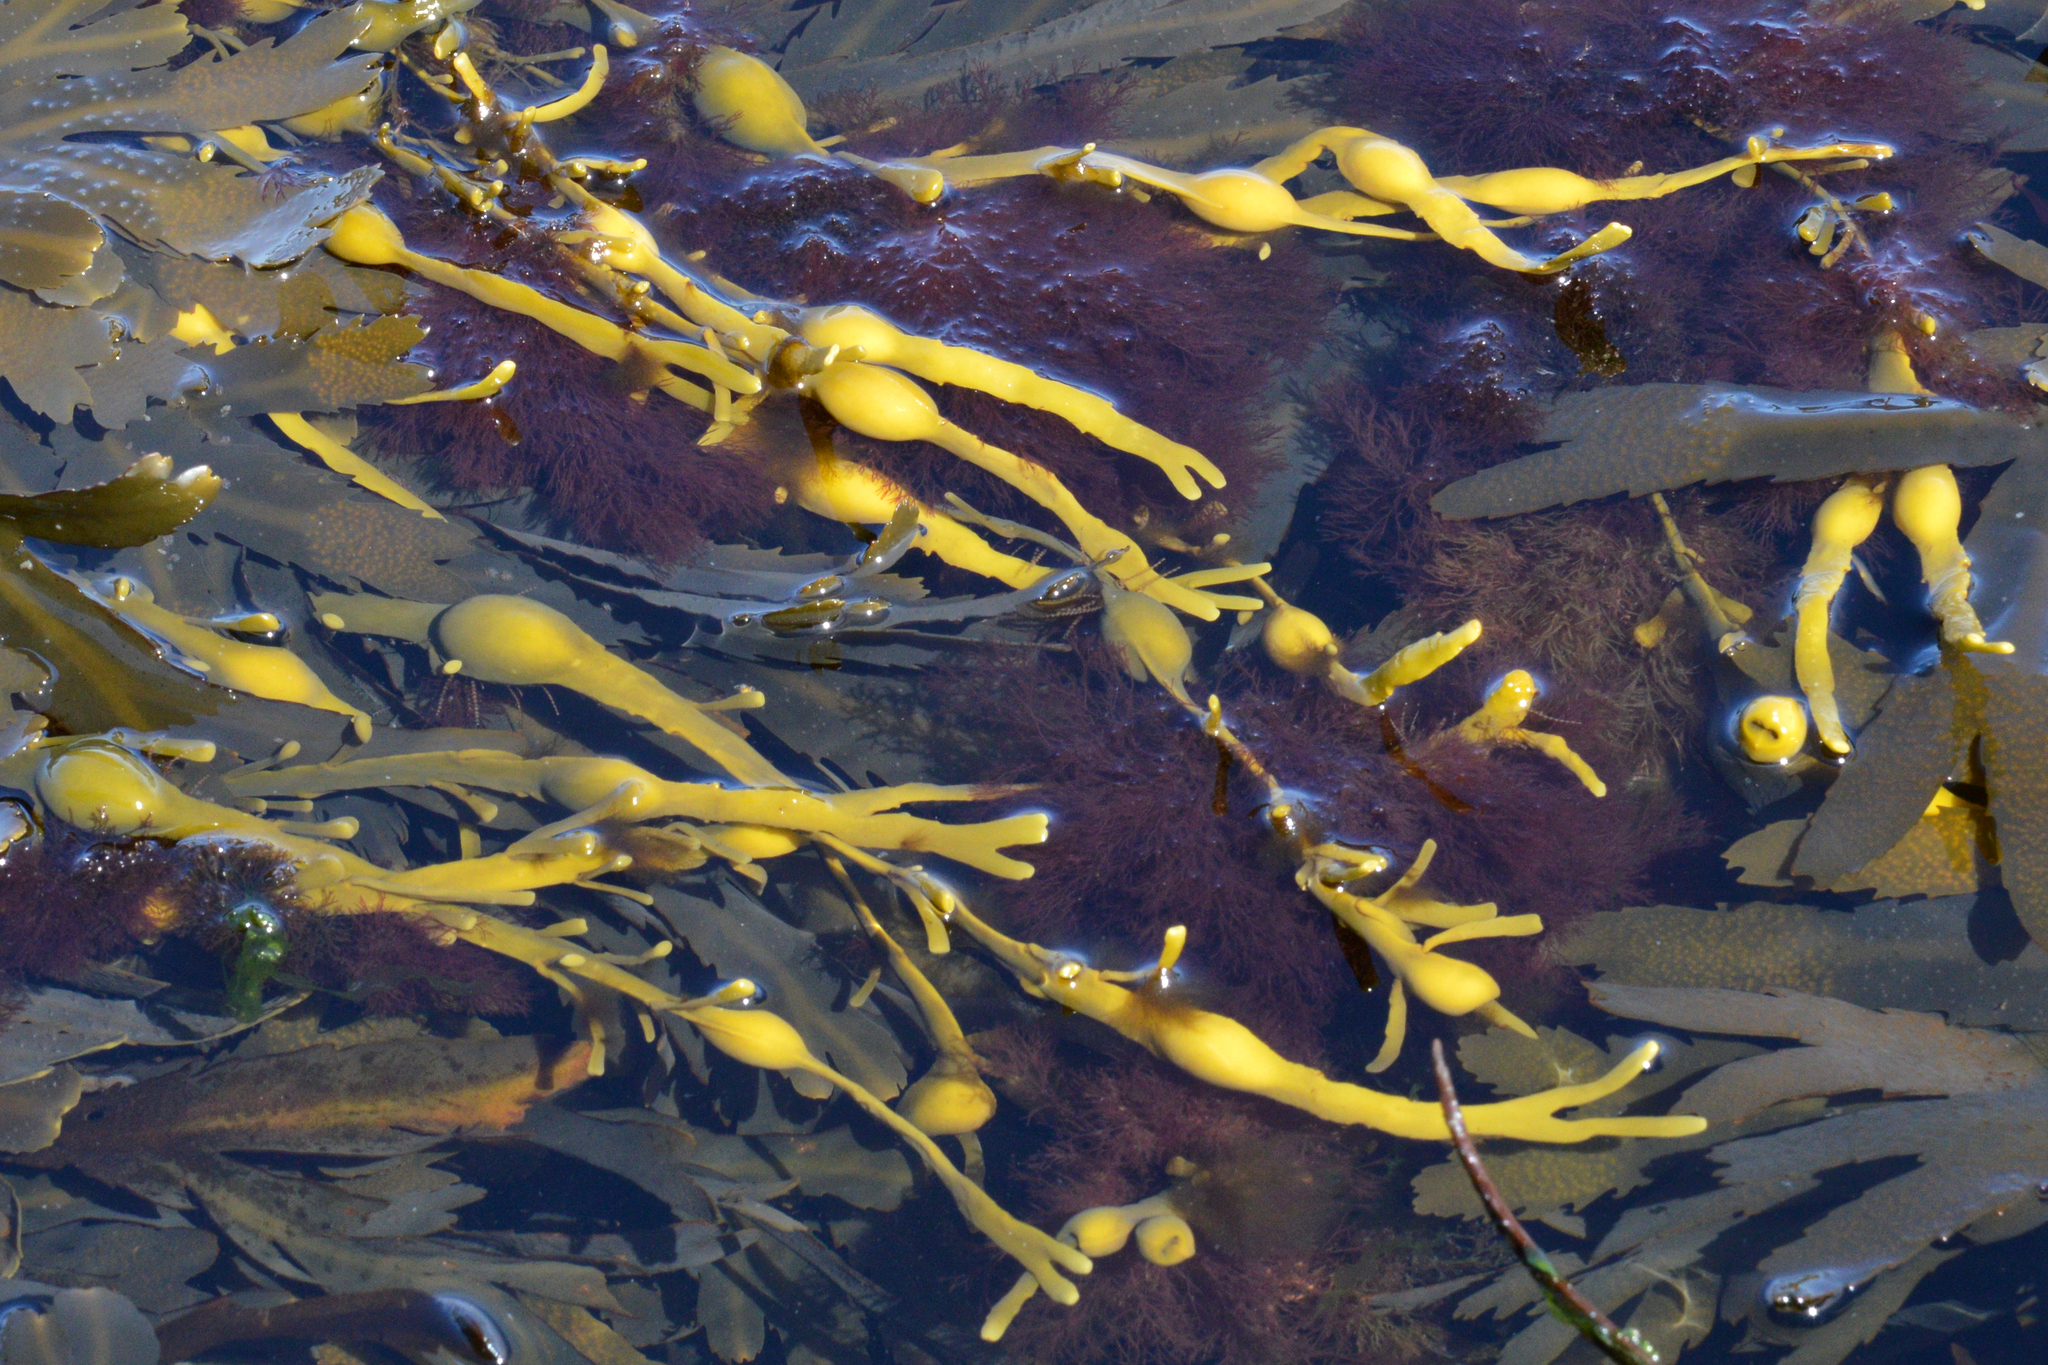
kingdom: Chromista
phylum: Ochrophyta
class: Phaeophyceae
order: Fucales
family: Fucaceae
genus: Ascophyllum
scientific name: Ascophyllum nodosum
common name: Knotted wrack
